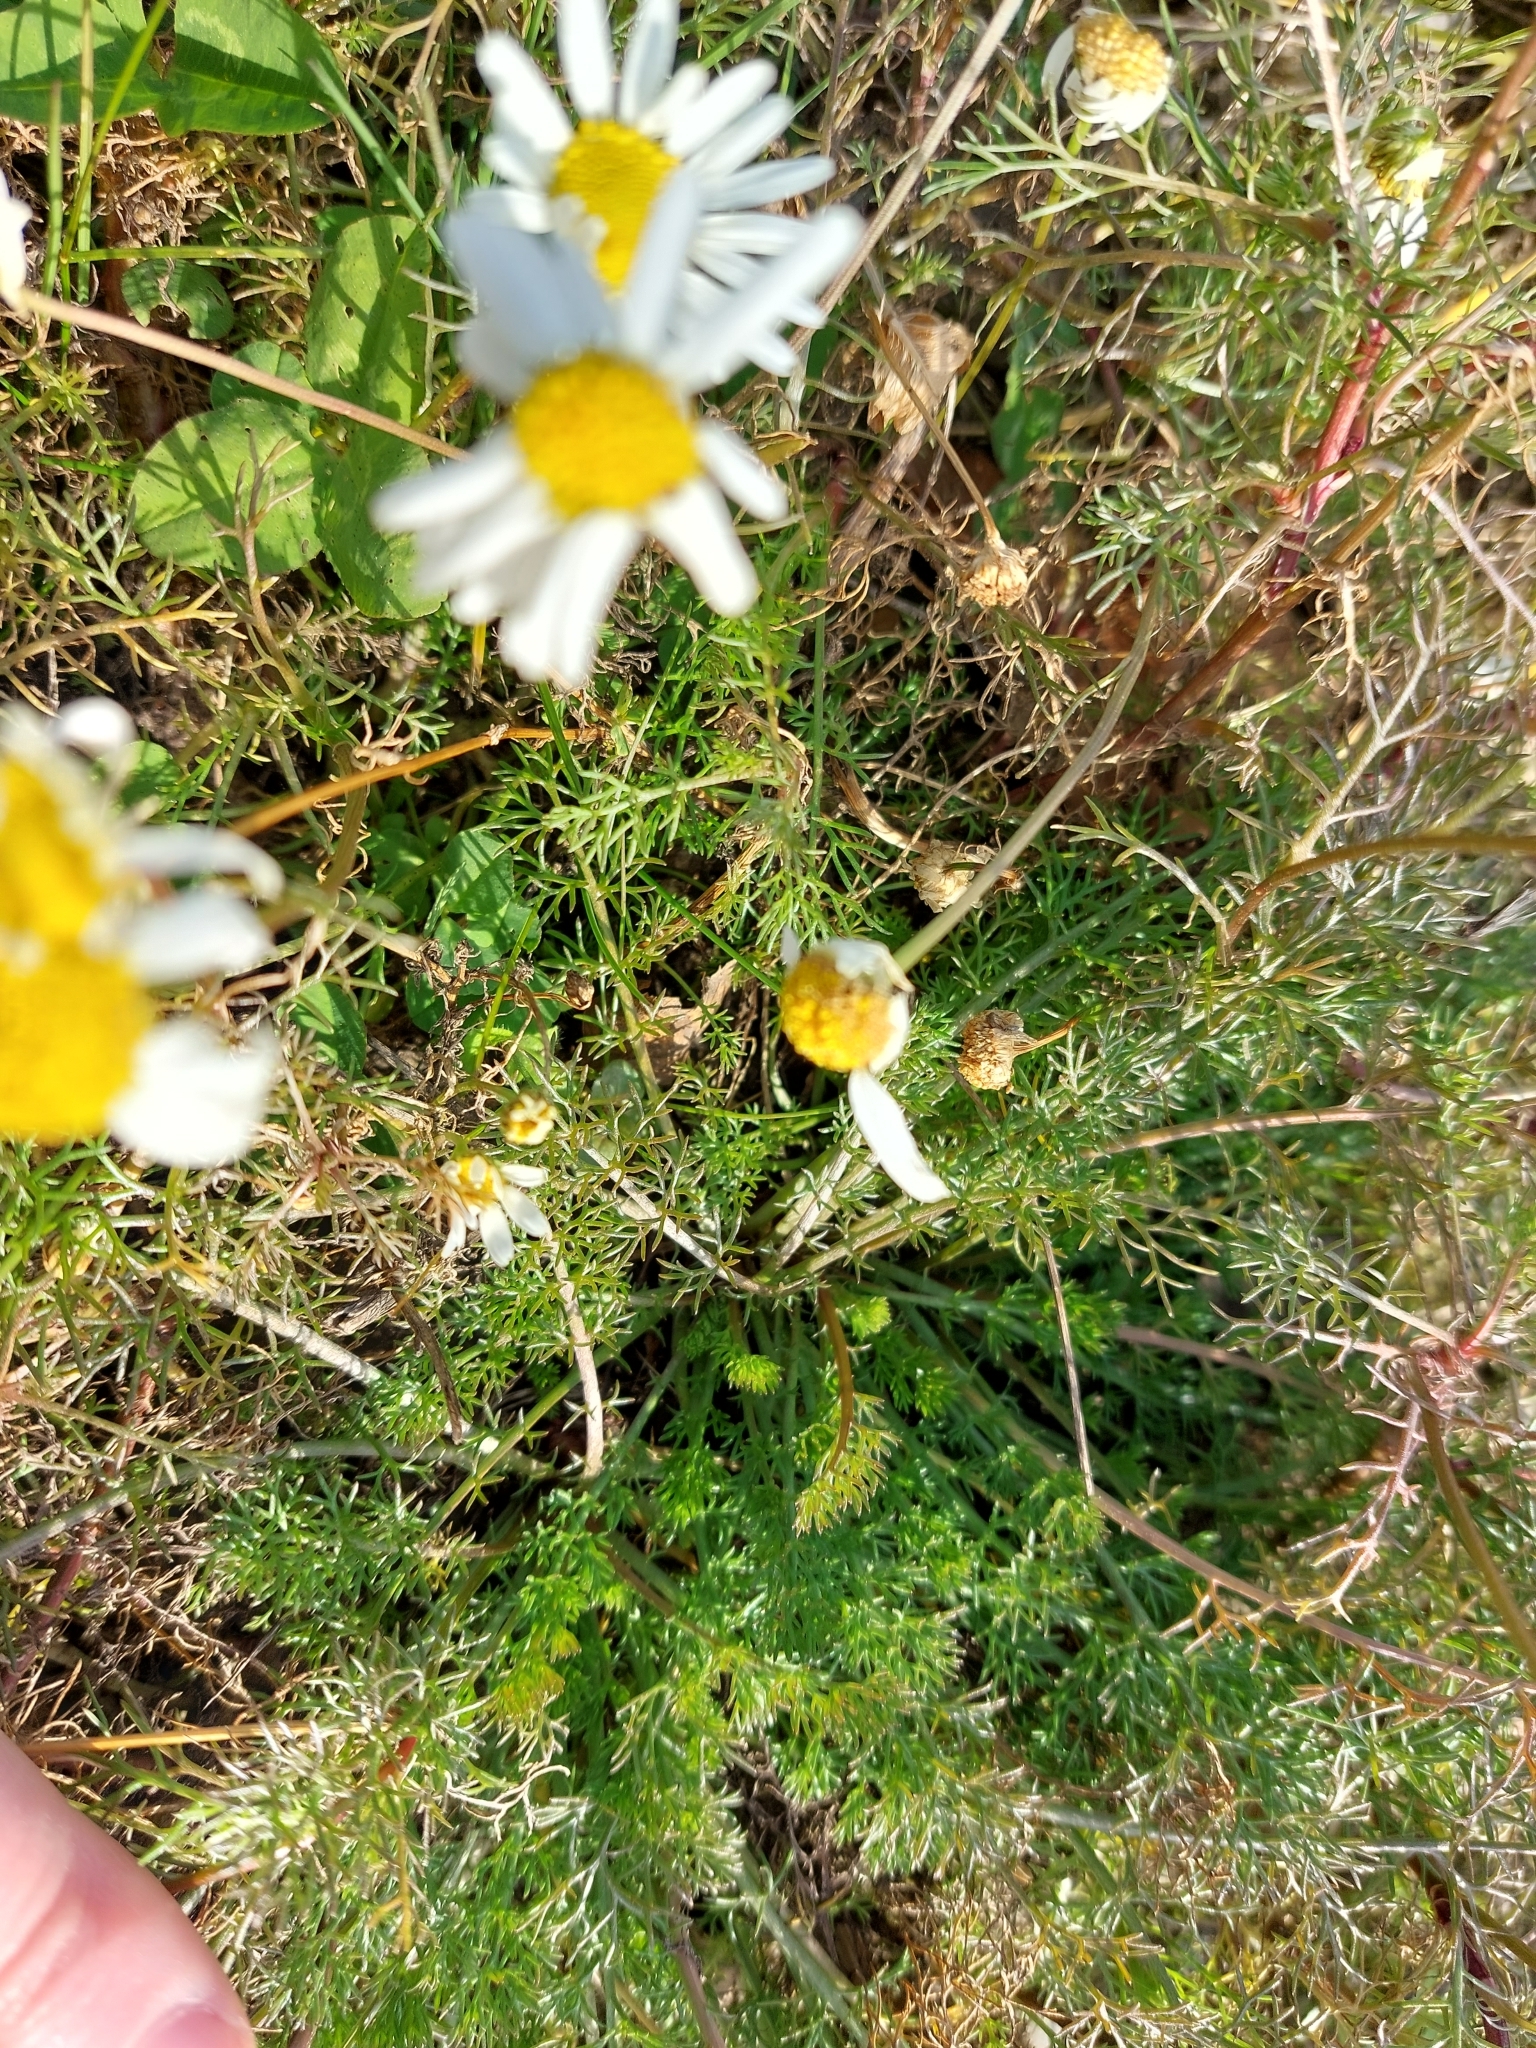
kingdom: Plantae
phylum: Tracheophyta
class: Magnoliopsida
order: Asterales
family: Asteraceae
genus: Tripleurospermum
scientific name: Tripleurospermum inodorum
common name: Scentless mayweed
